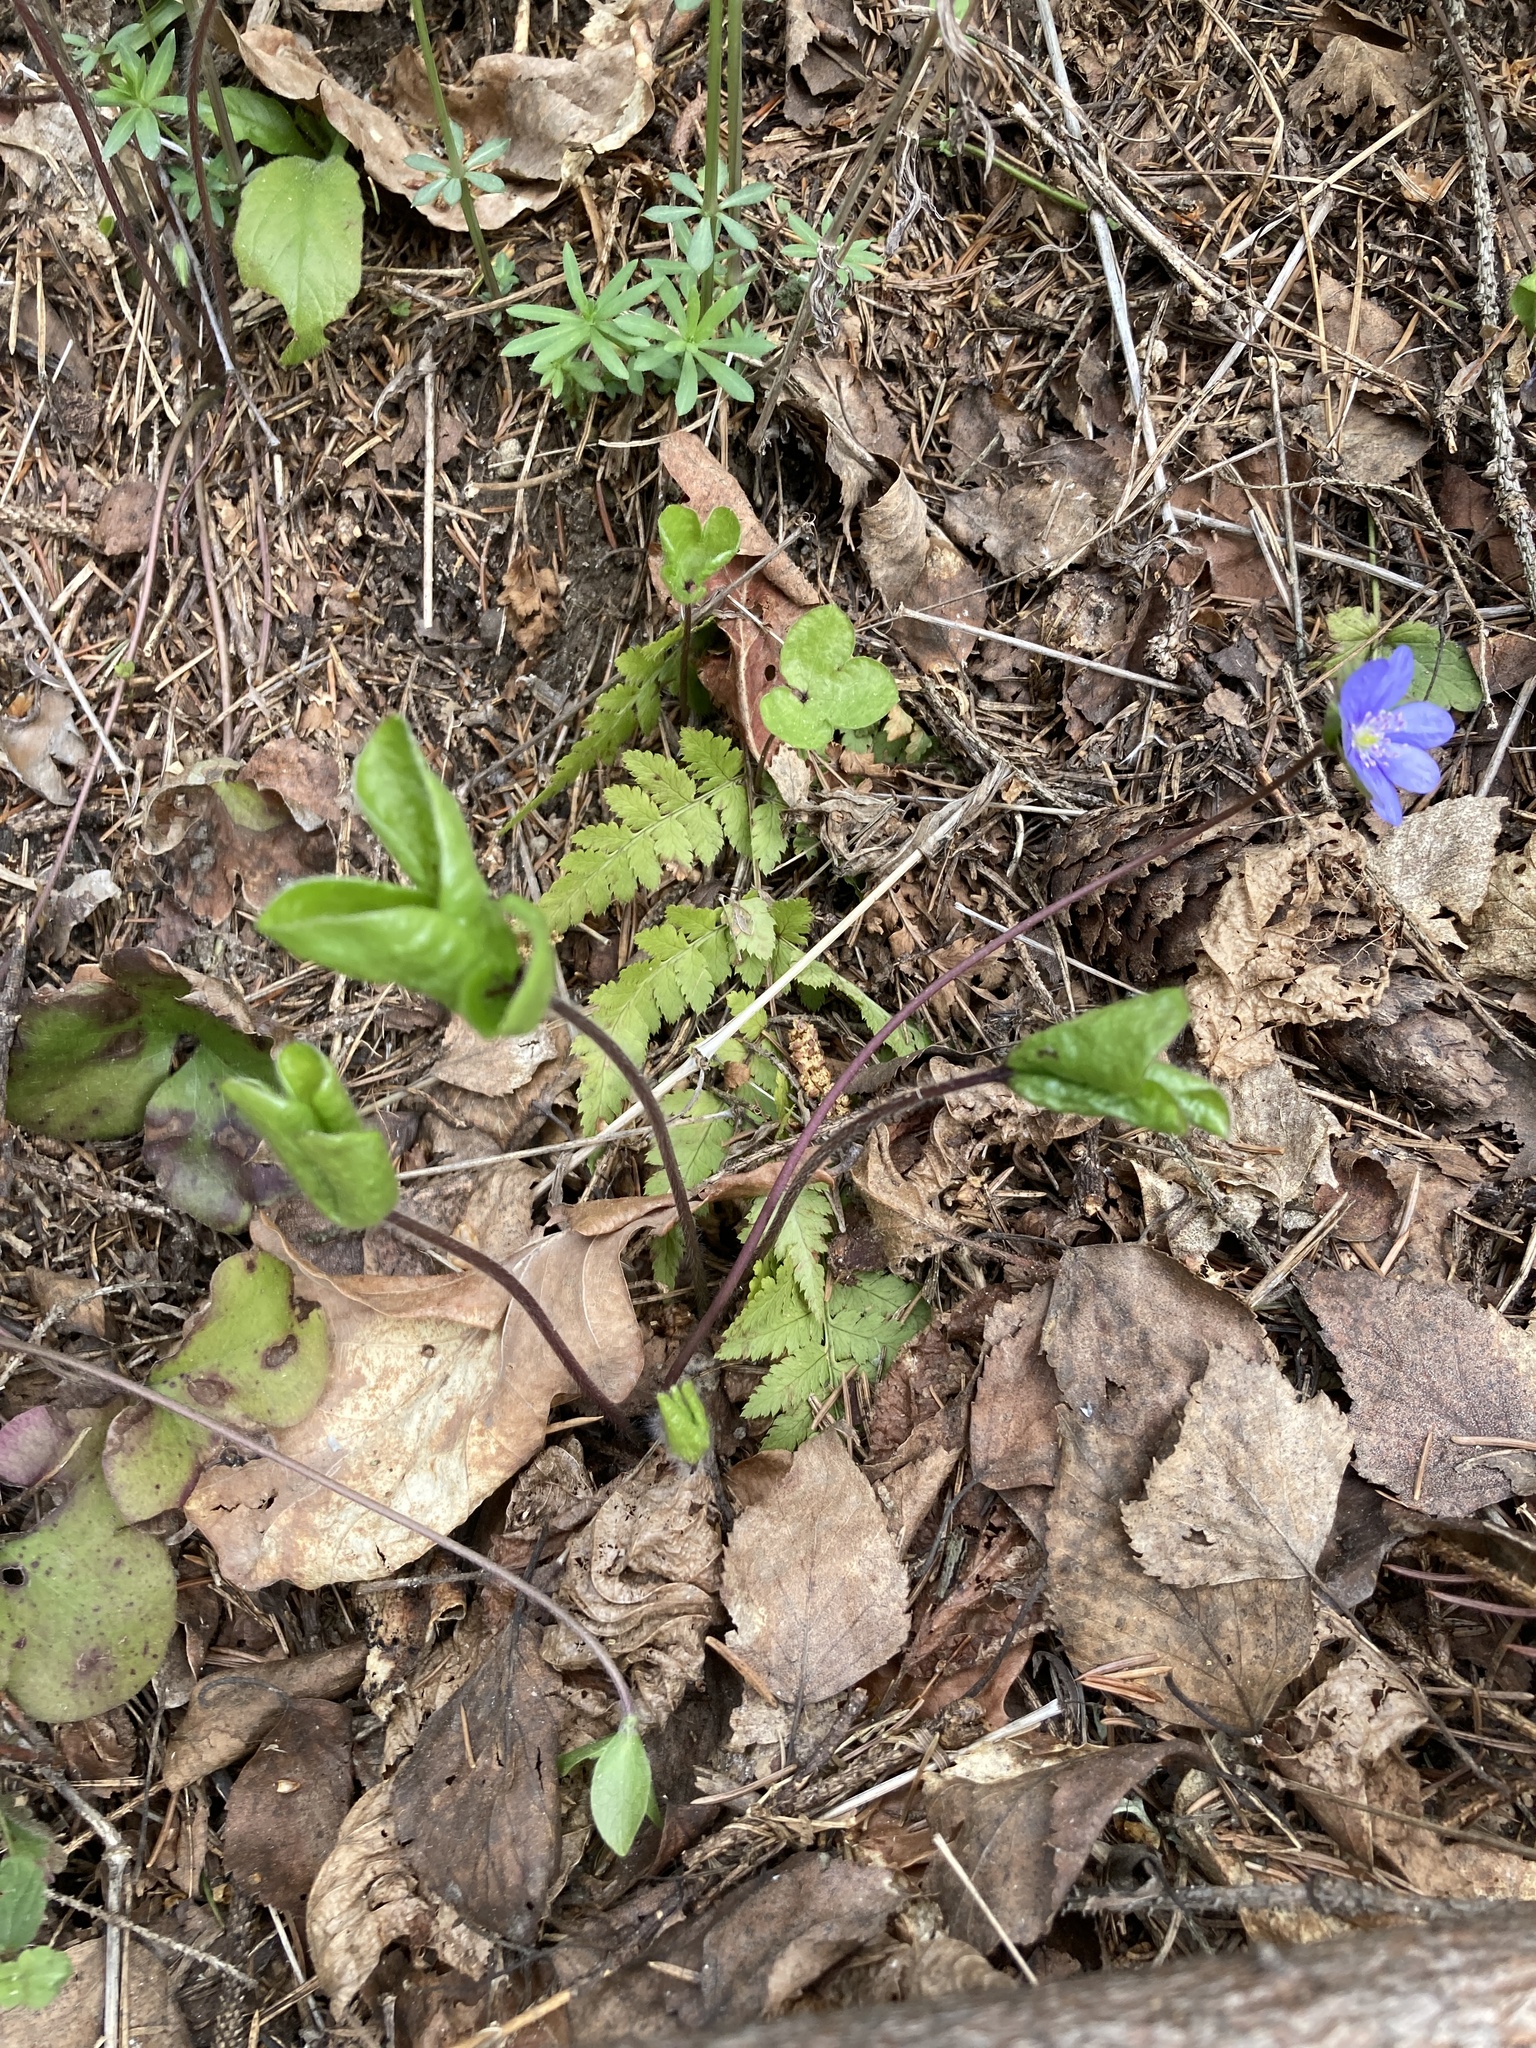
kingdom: Plantae
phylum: Tracheophyta
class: Magnoliopsida
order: Ranunculales
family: Ranunculaceae
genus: Hepatica
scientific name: Hepatica nobilis
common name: Liverleaf
